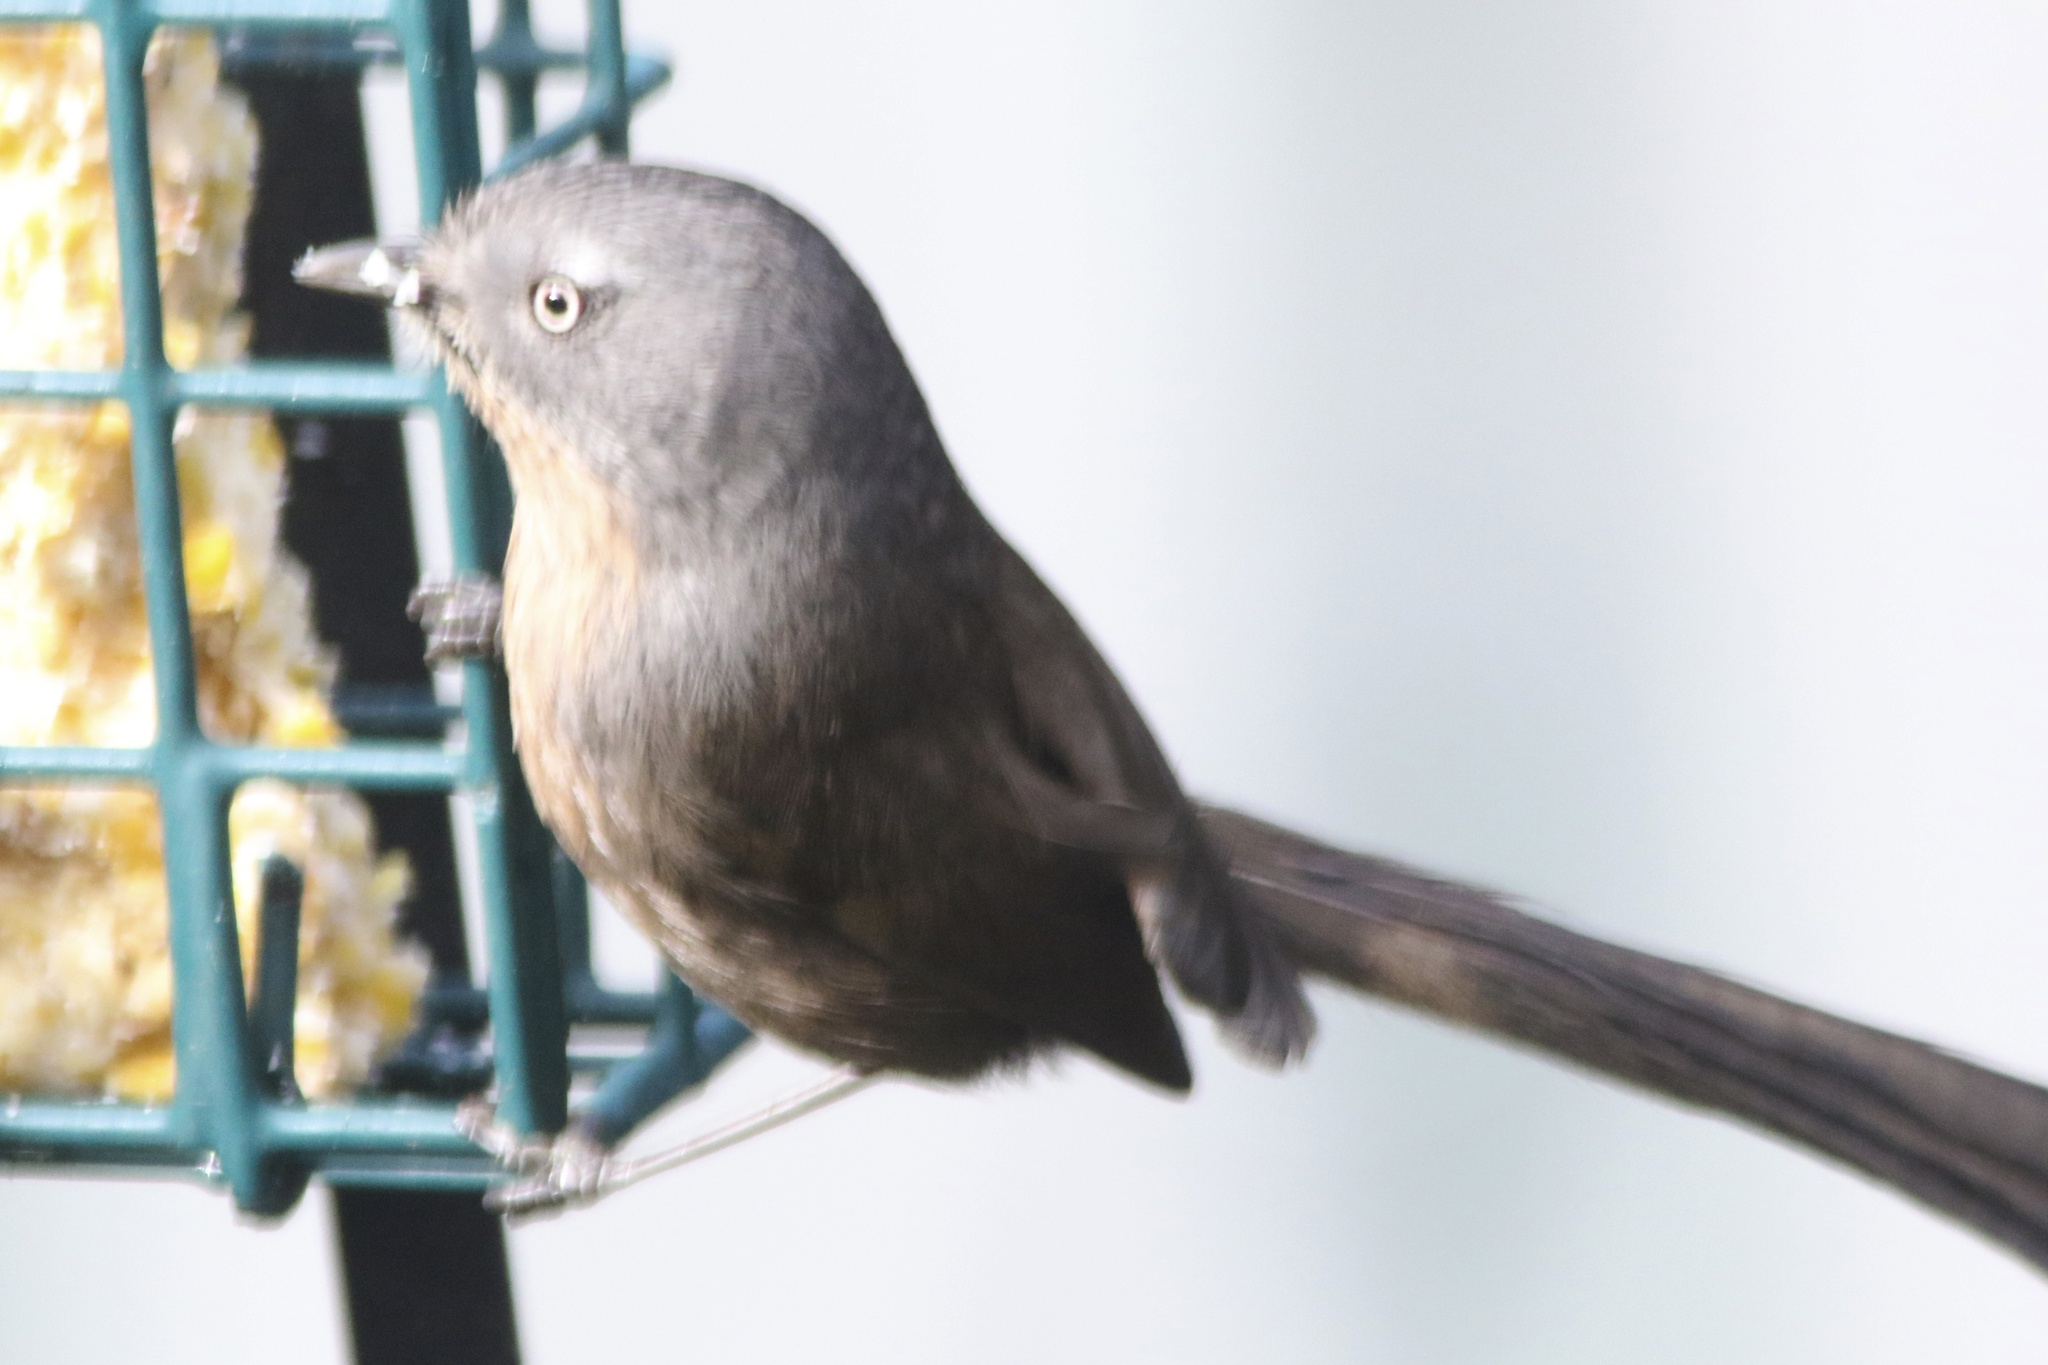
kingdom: Animalia
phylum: Chordata
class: Aves
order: Passeriformes
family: Sylviidae
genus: Chamaea
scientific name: Chamaea fasciata
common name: Wrentit
